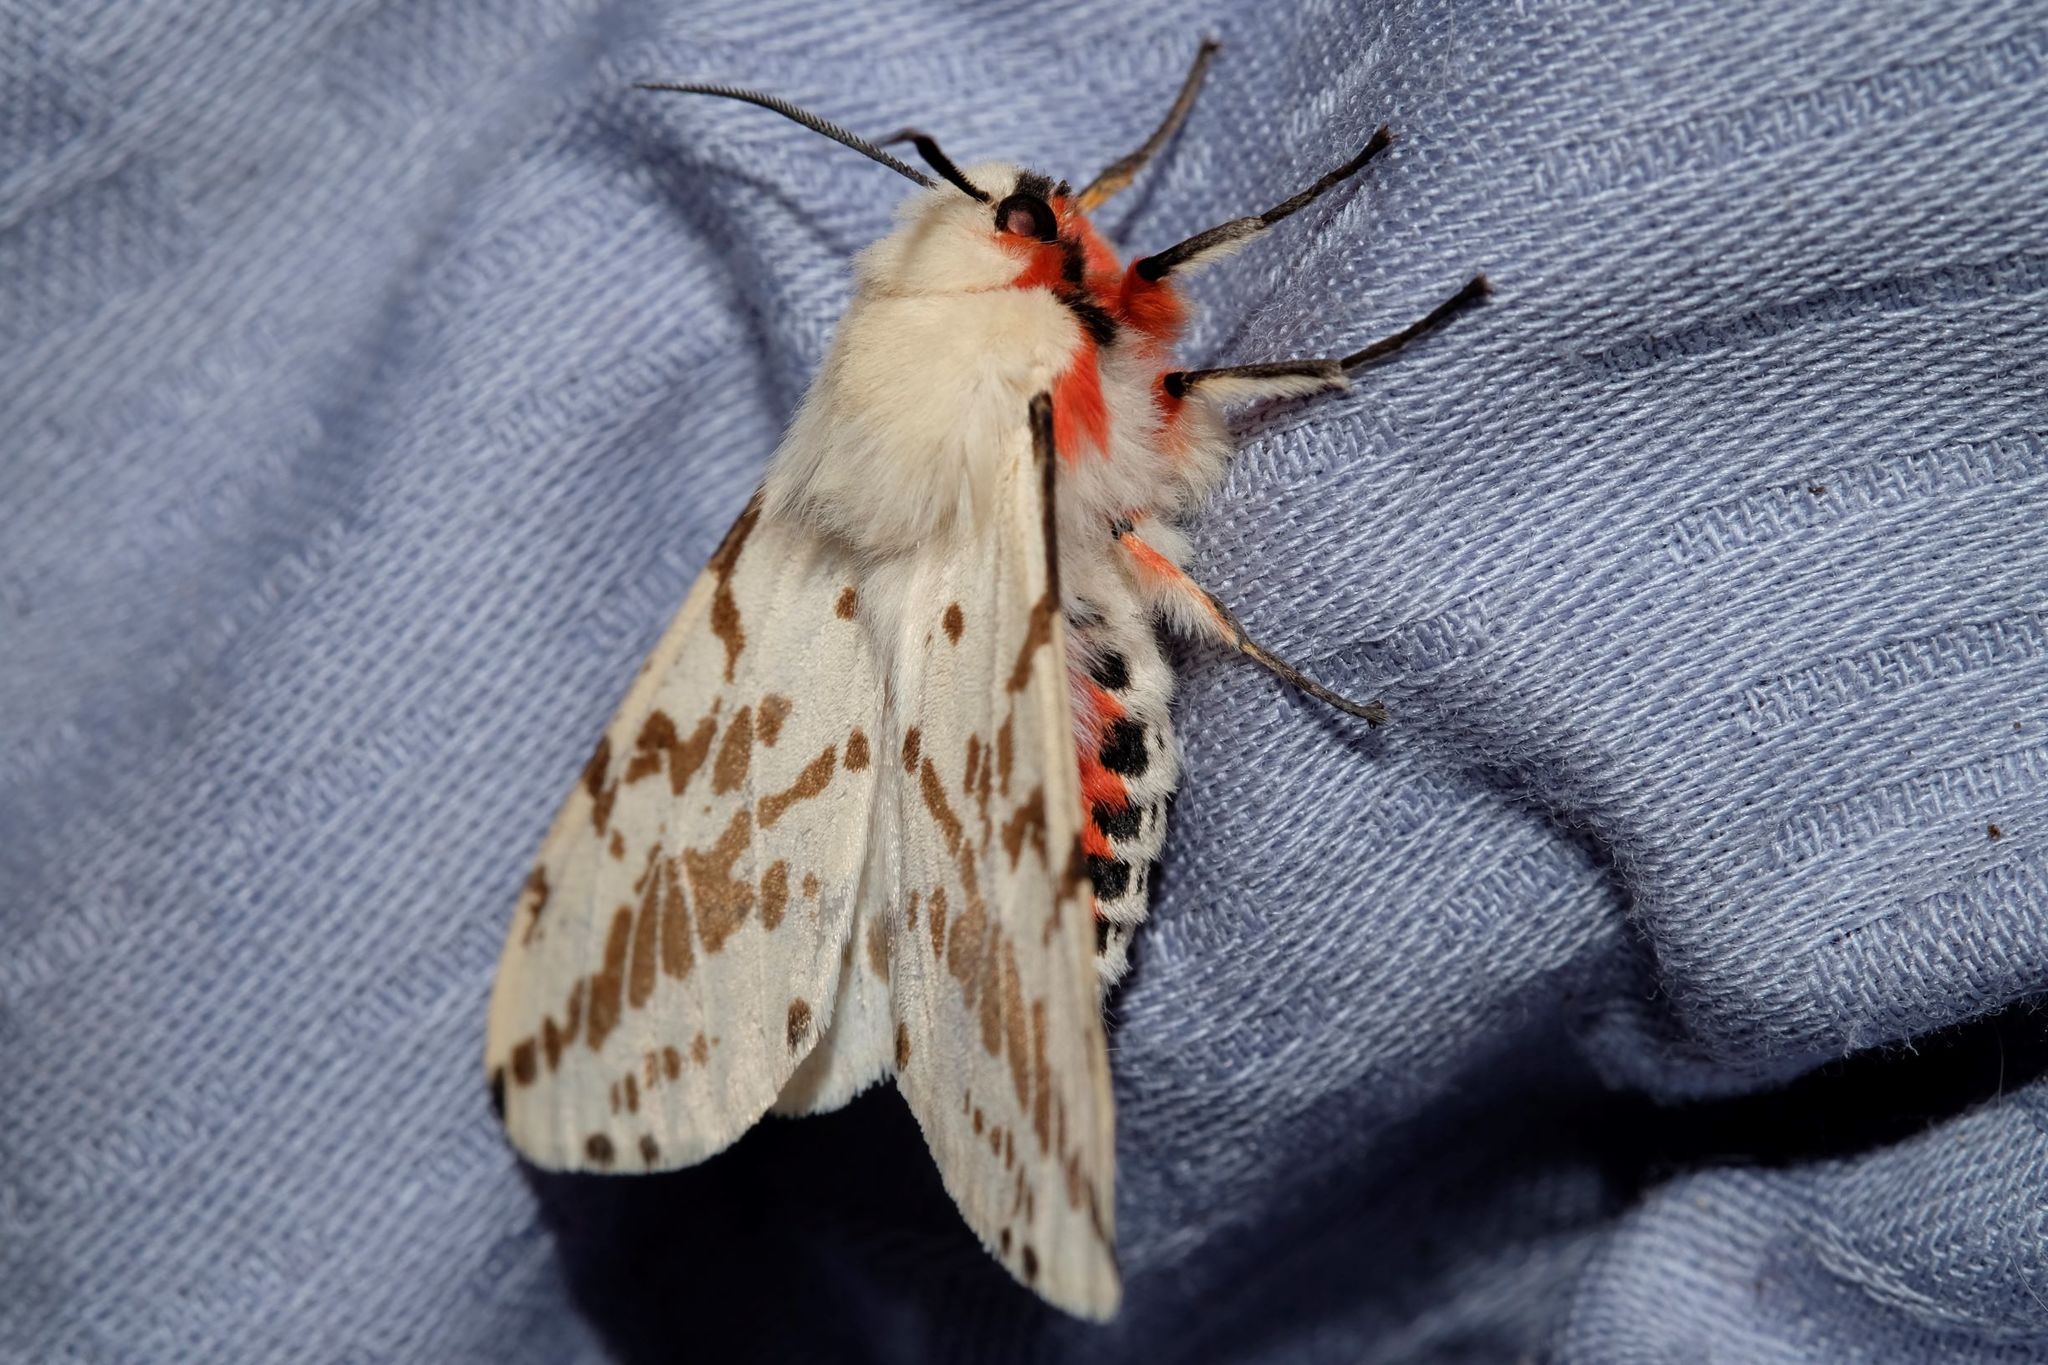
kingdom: Animalia
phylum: Arthropoda
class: Insecta
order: Lepidoptera
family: Erebidae
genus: Ardices
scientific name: Ardices canescens
